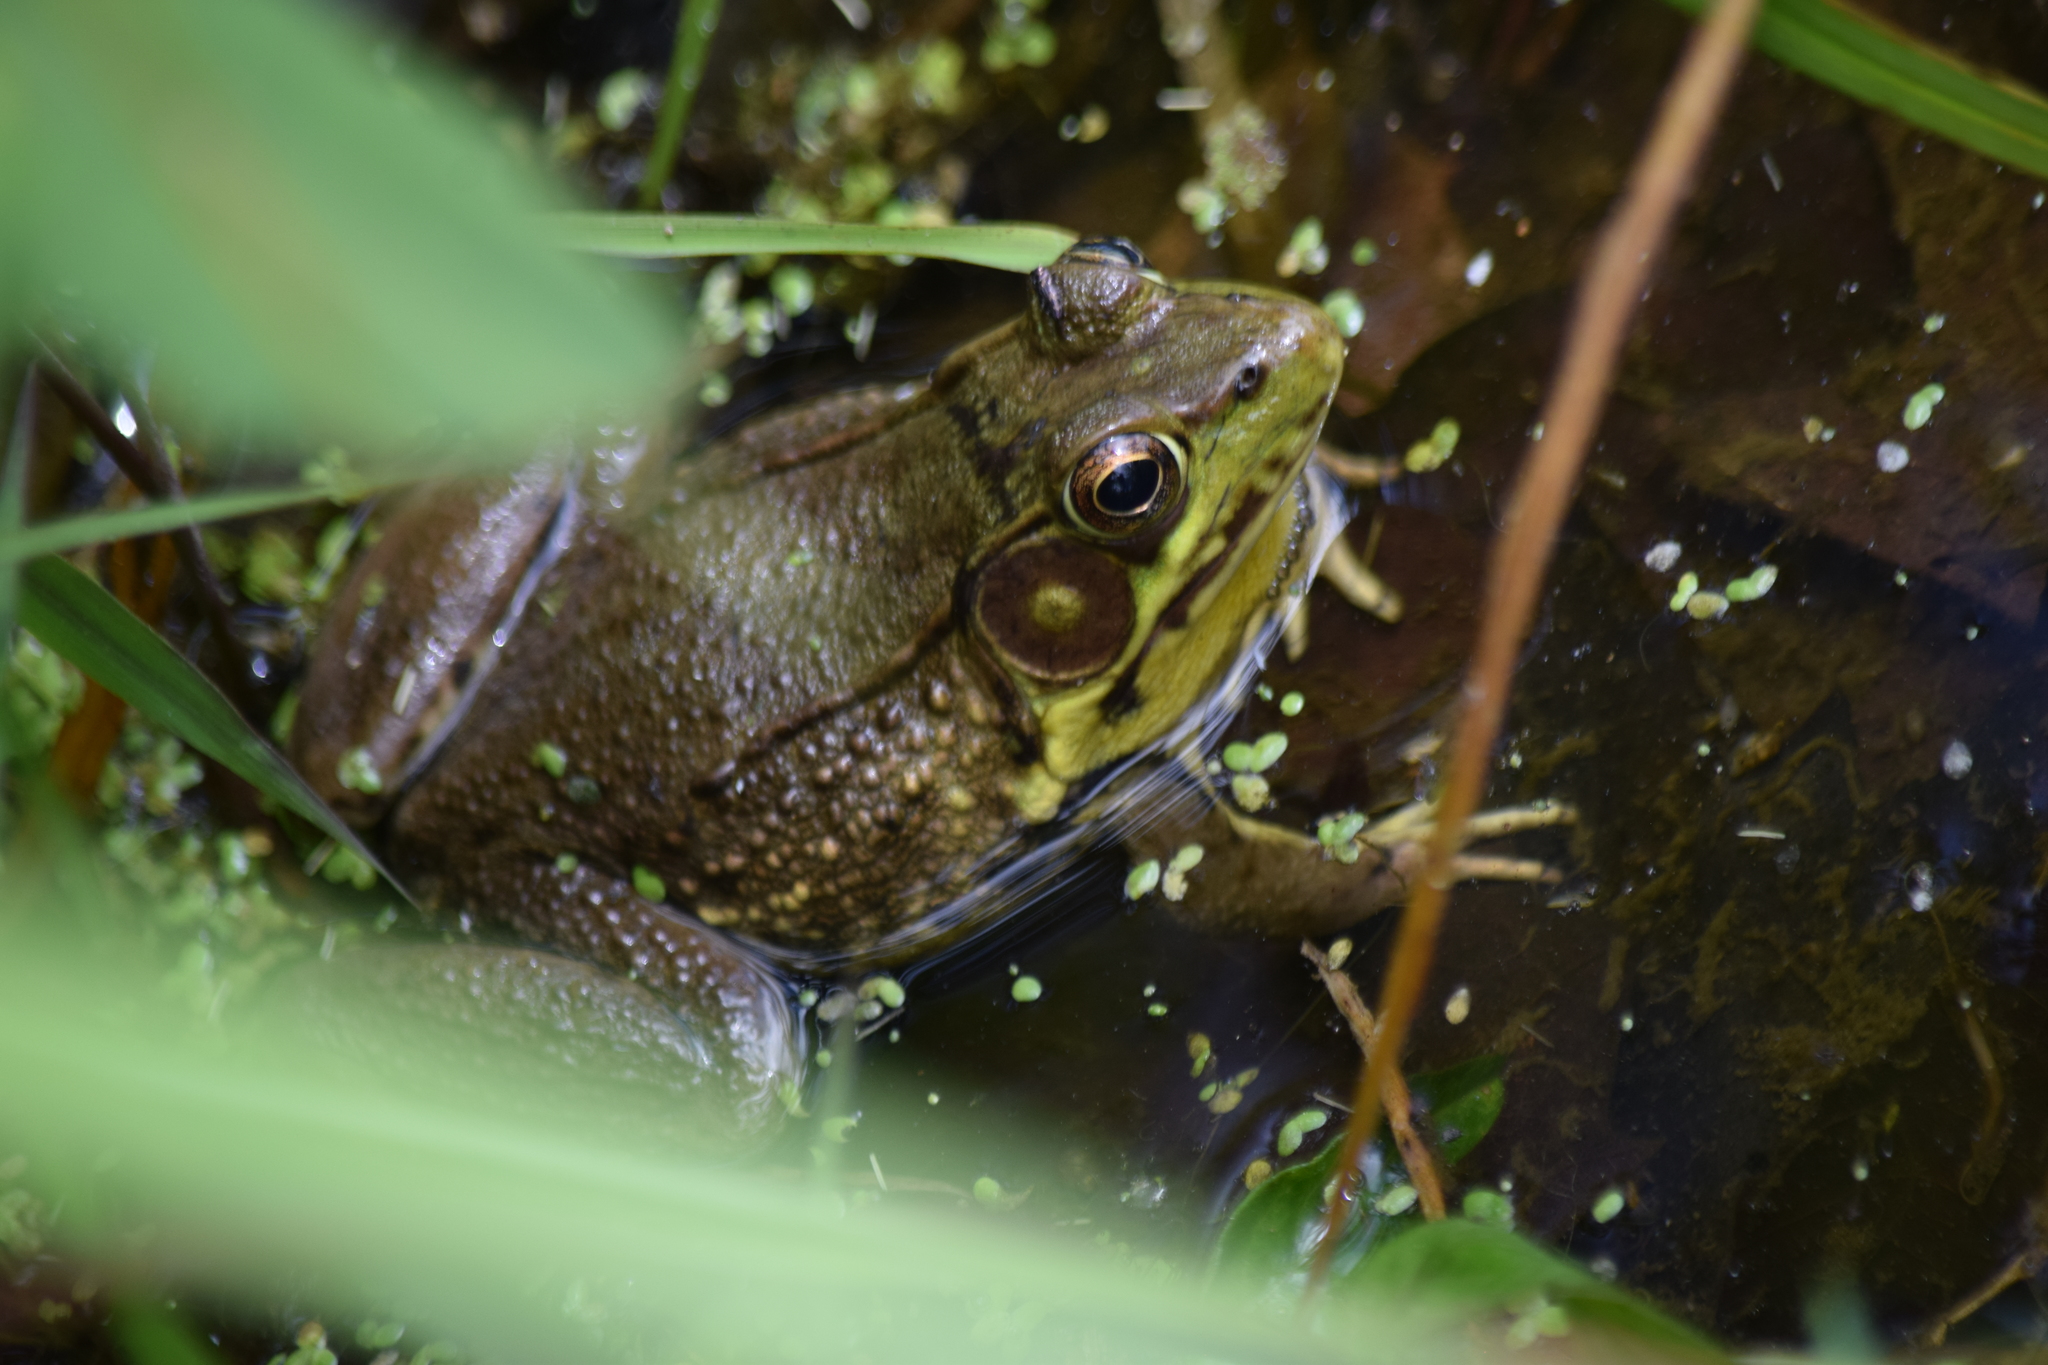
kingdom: Animalia
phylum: Chordata
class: Amphibia
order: Anura
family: Ranidae
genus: Lithobates
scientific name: Lithobates clamitans
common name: Green frog
